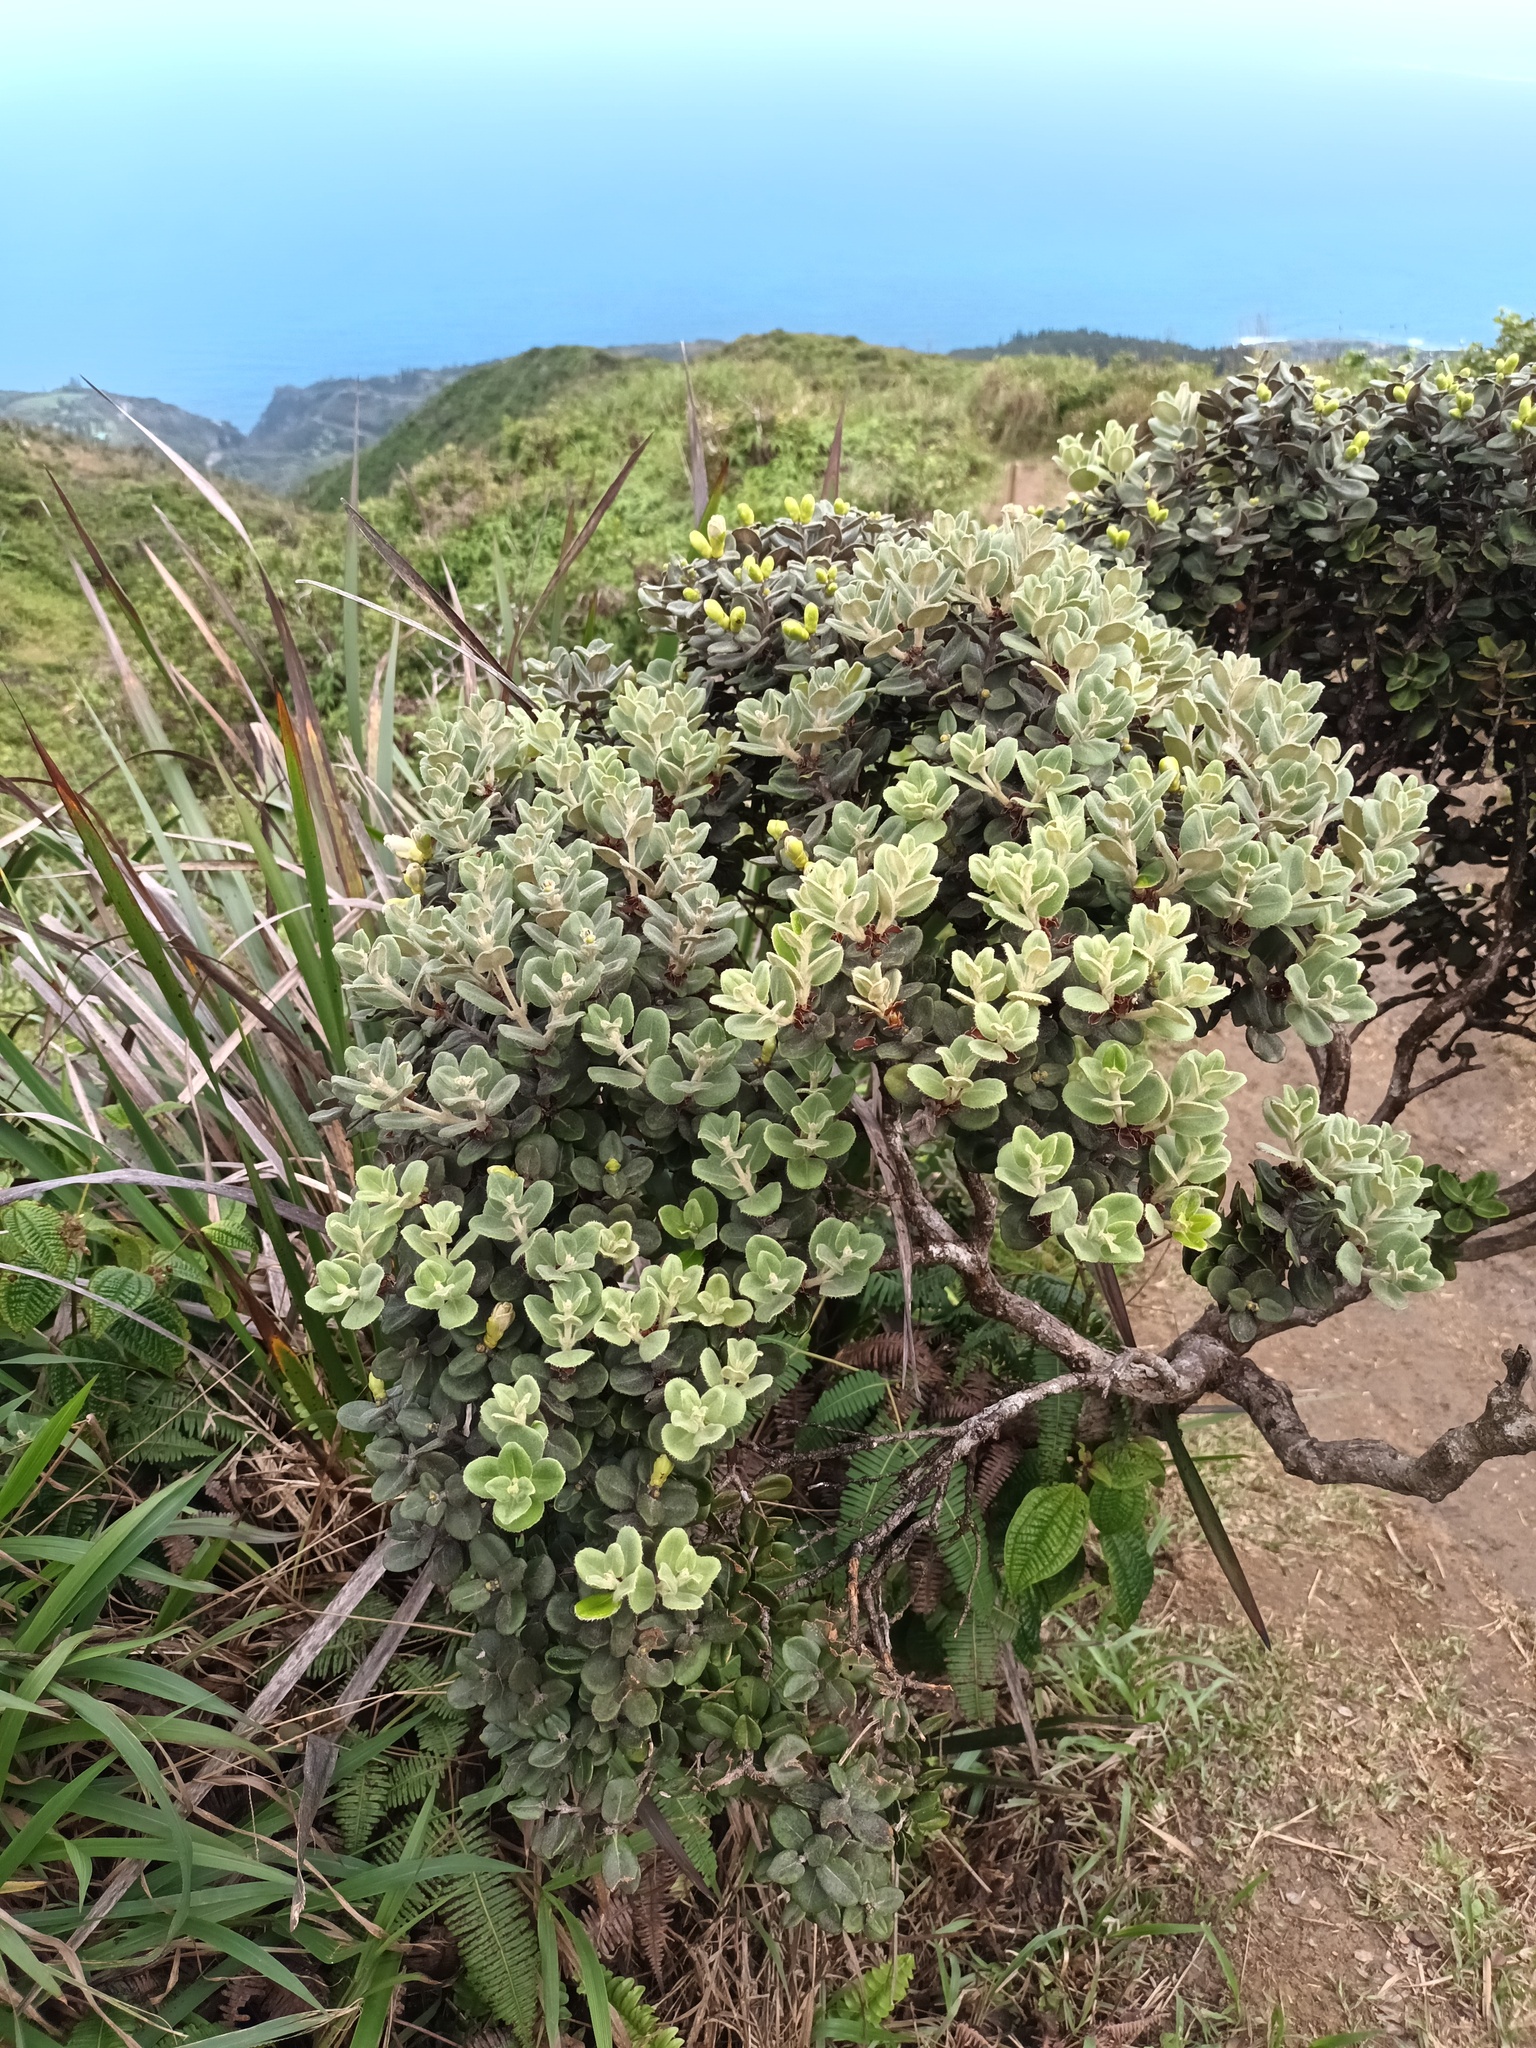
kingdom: Plantae
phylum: Tracheophyta
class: Magnoliopsida
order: Myrtales
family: Myrtaceae
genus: Metrosideros
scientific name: Metrosideros polymorpha
